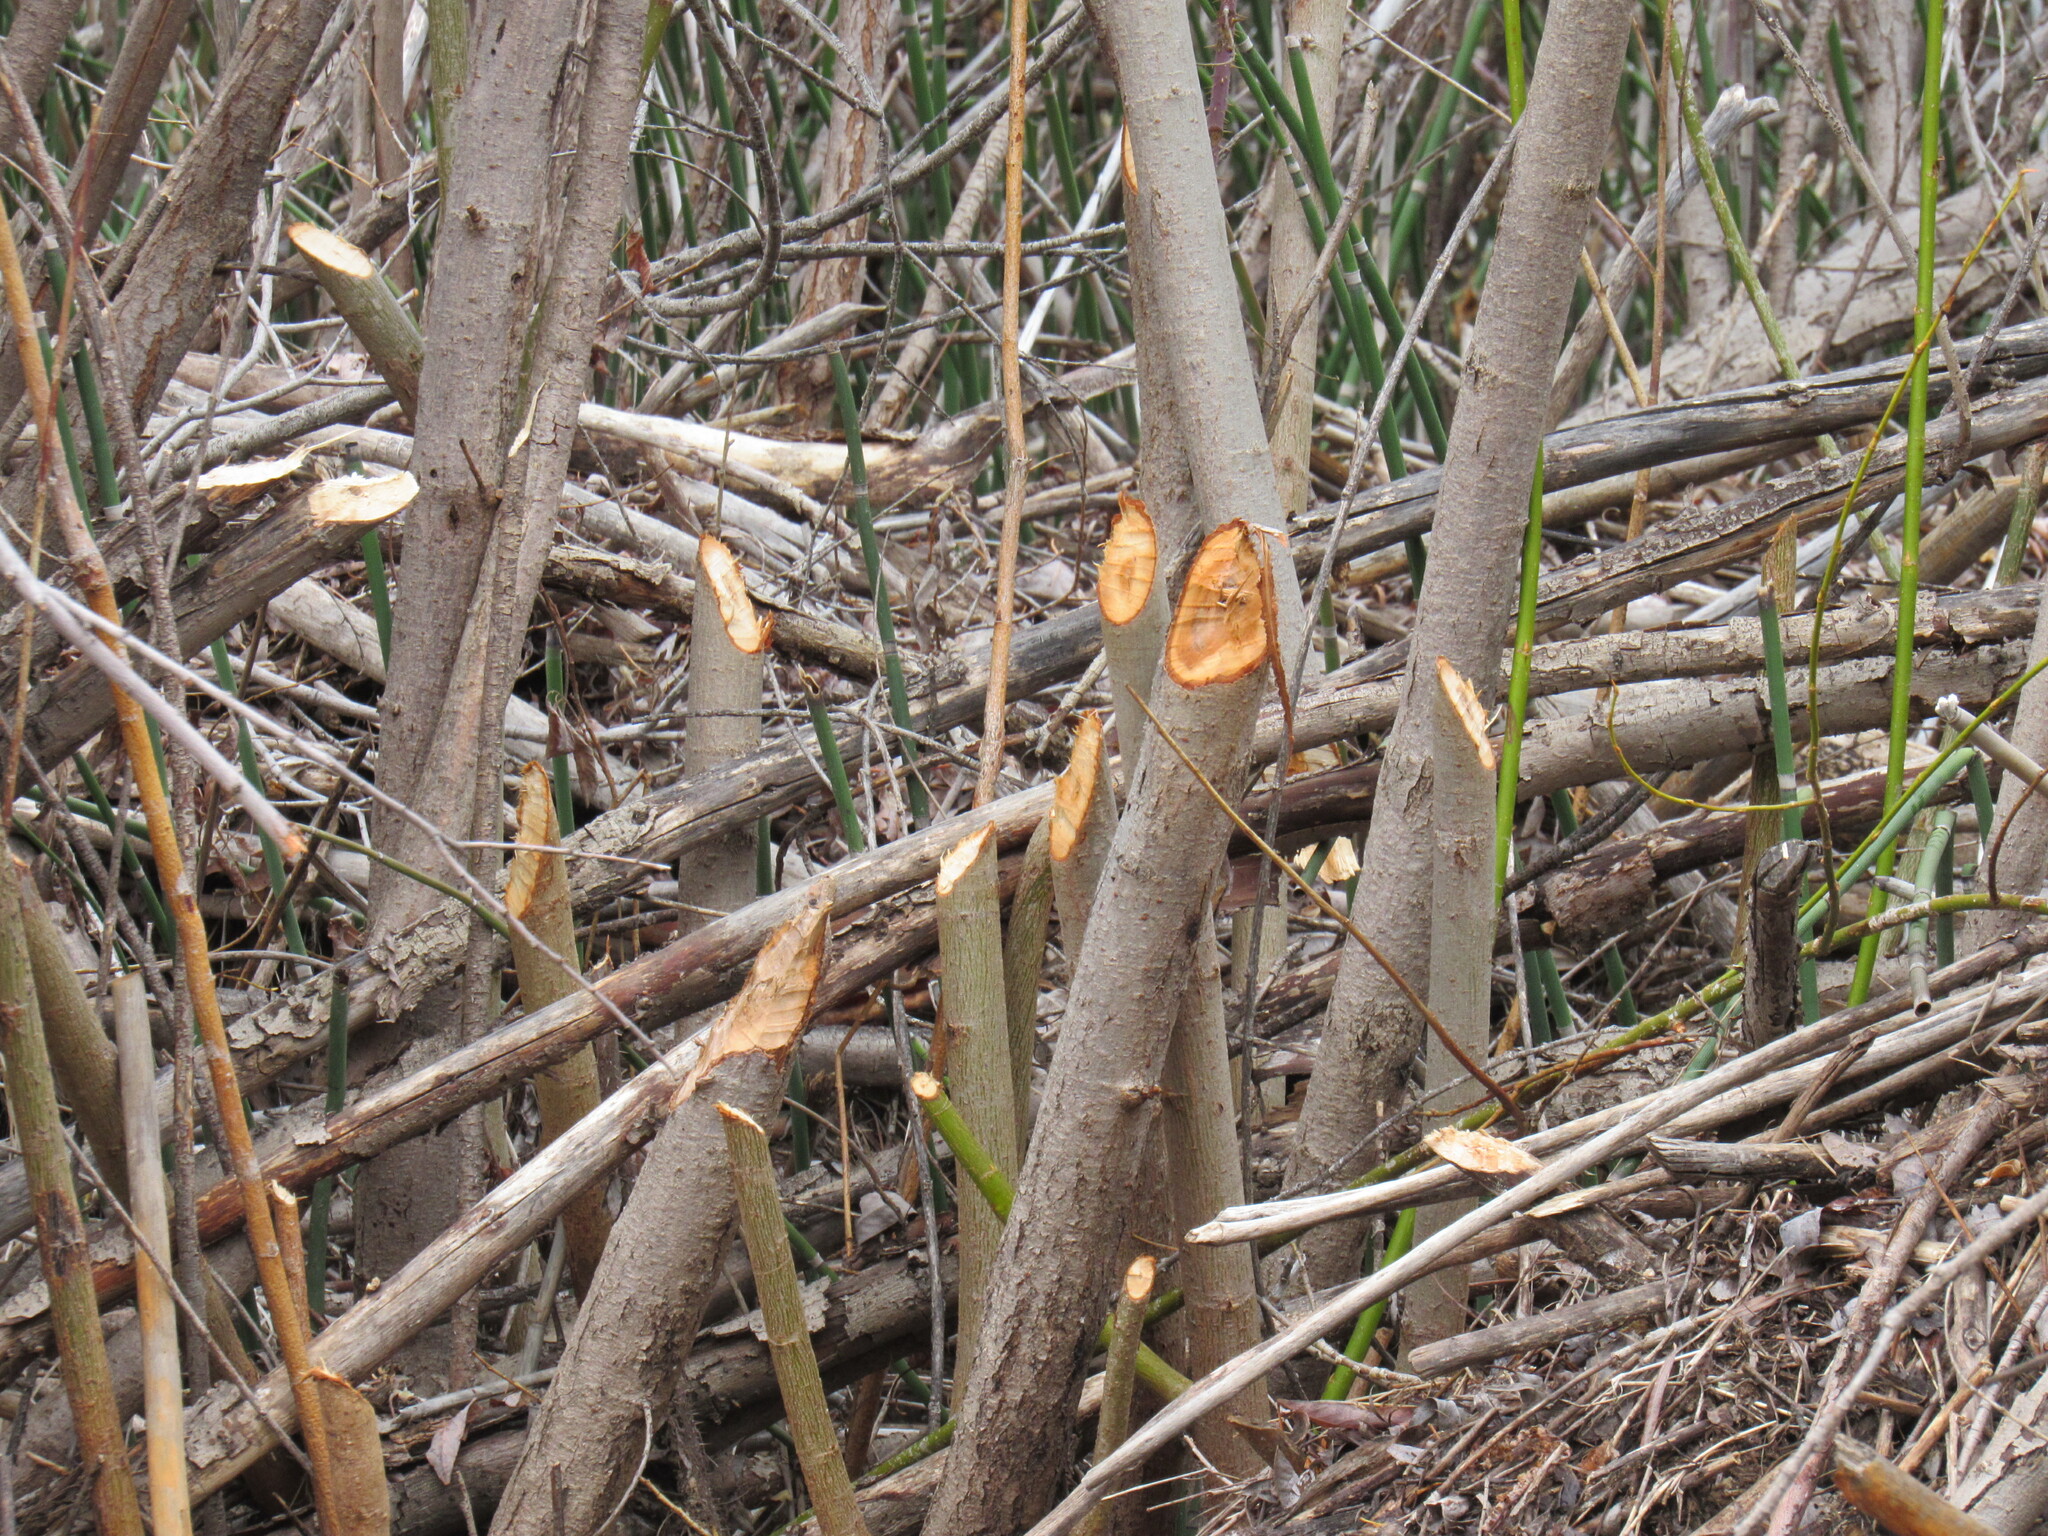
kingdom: Animalia
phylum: Chordata
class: Mammalia
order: Rodentia
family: Castoridae
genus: Castor
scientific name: Castor canadensis
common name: American beaver
